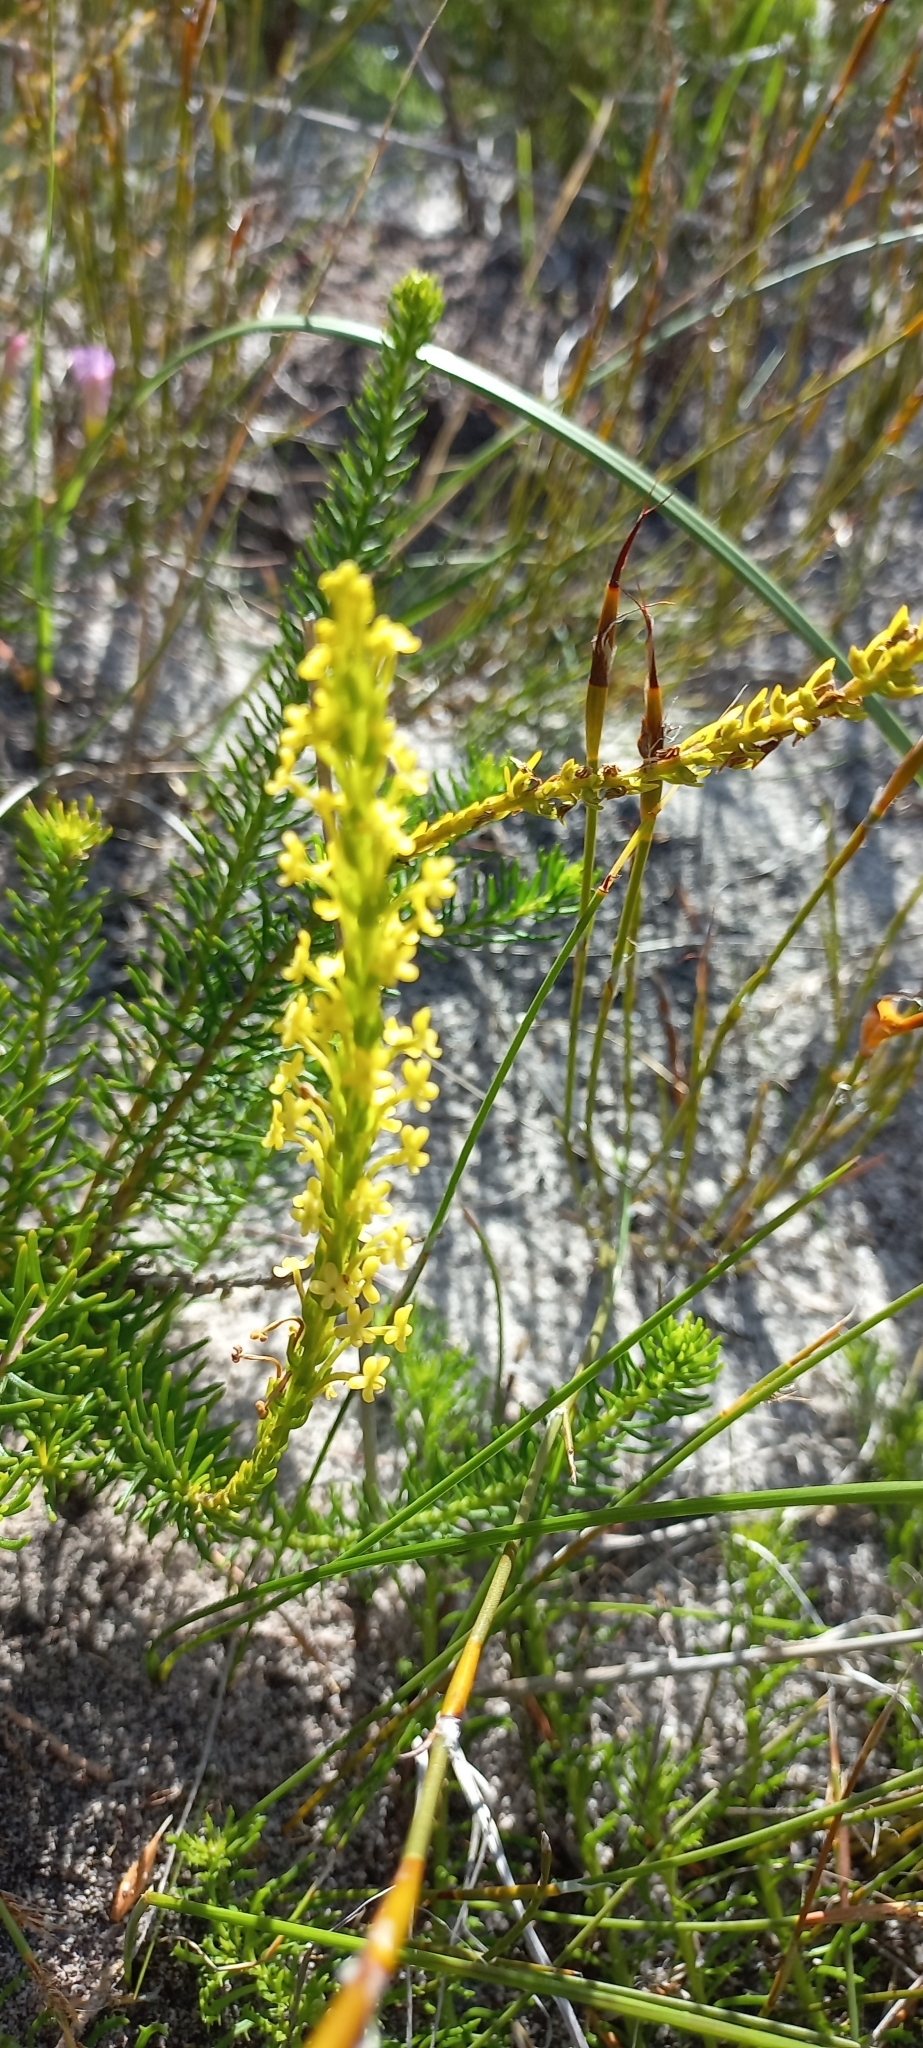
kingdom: Plantae
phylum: Tracheophyta
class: Magnoliopsida
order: Lamiales
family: Scrophulariaceae
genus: Microdon
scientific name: Microdon dubius
